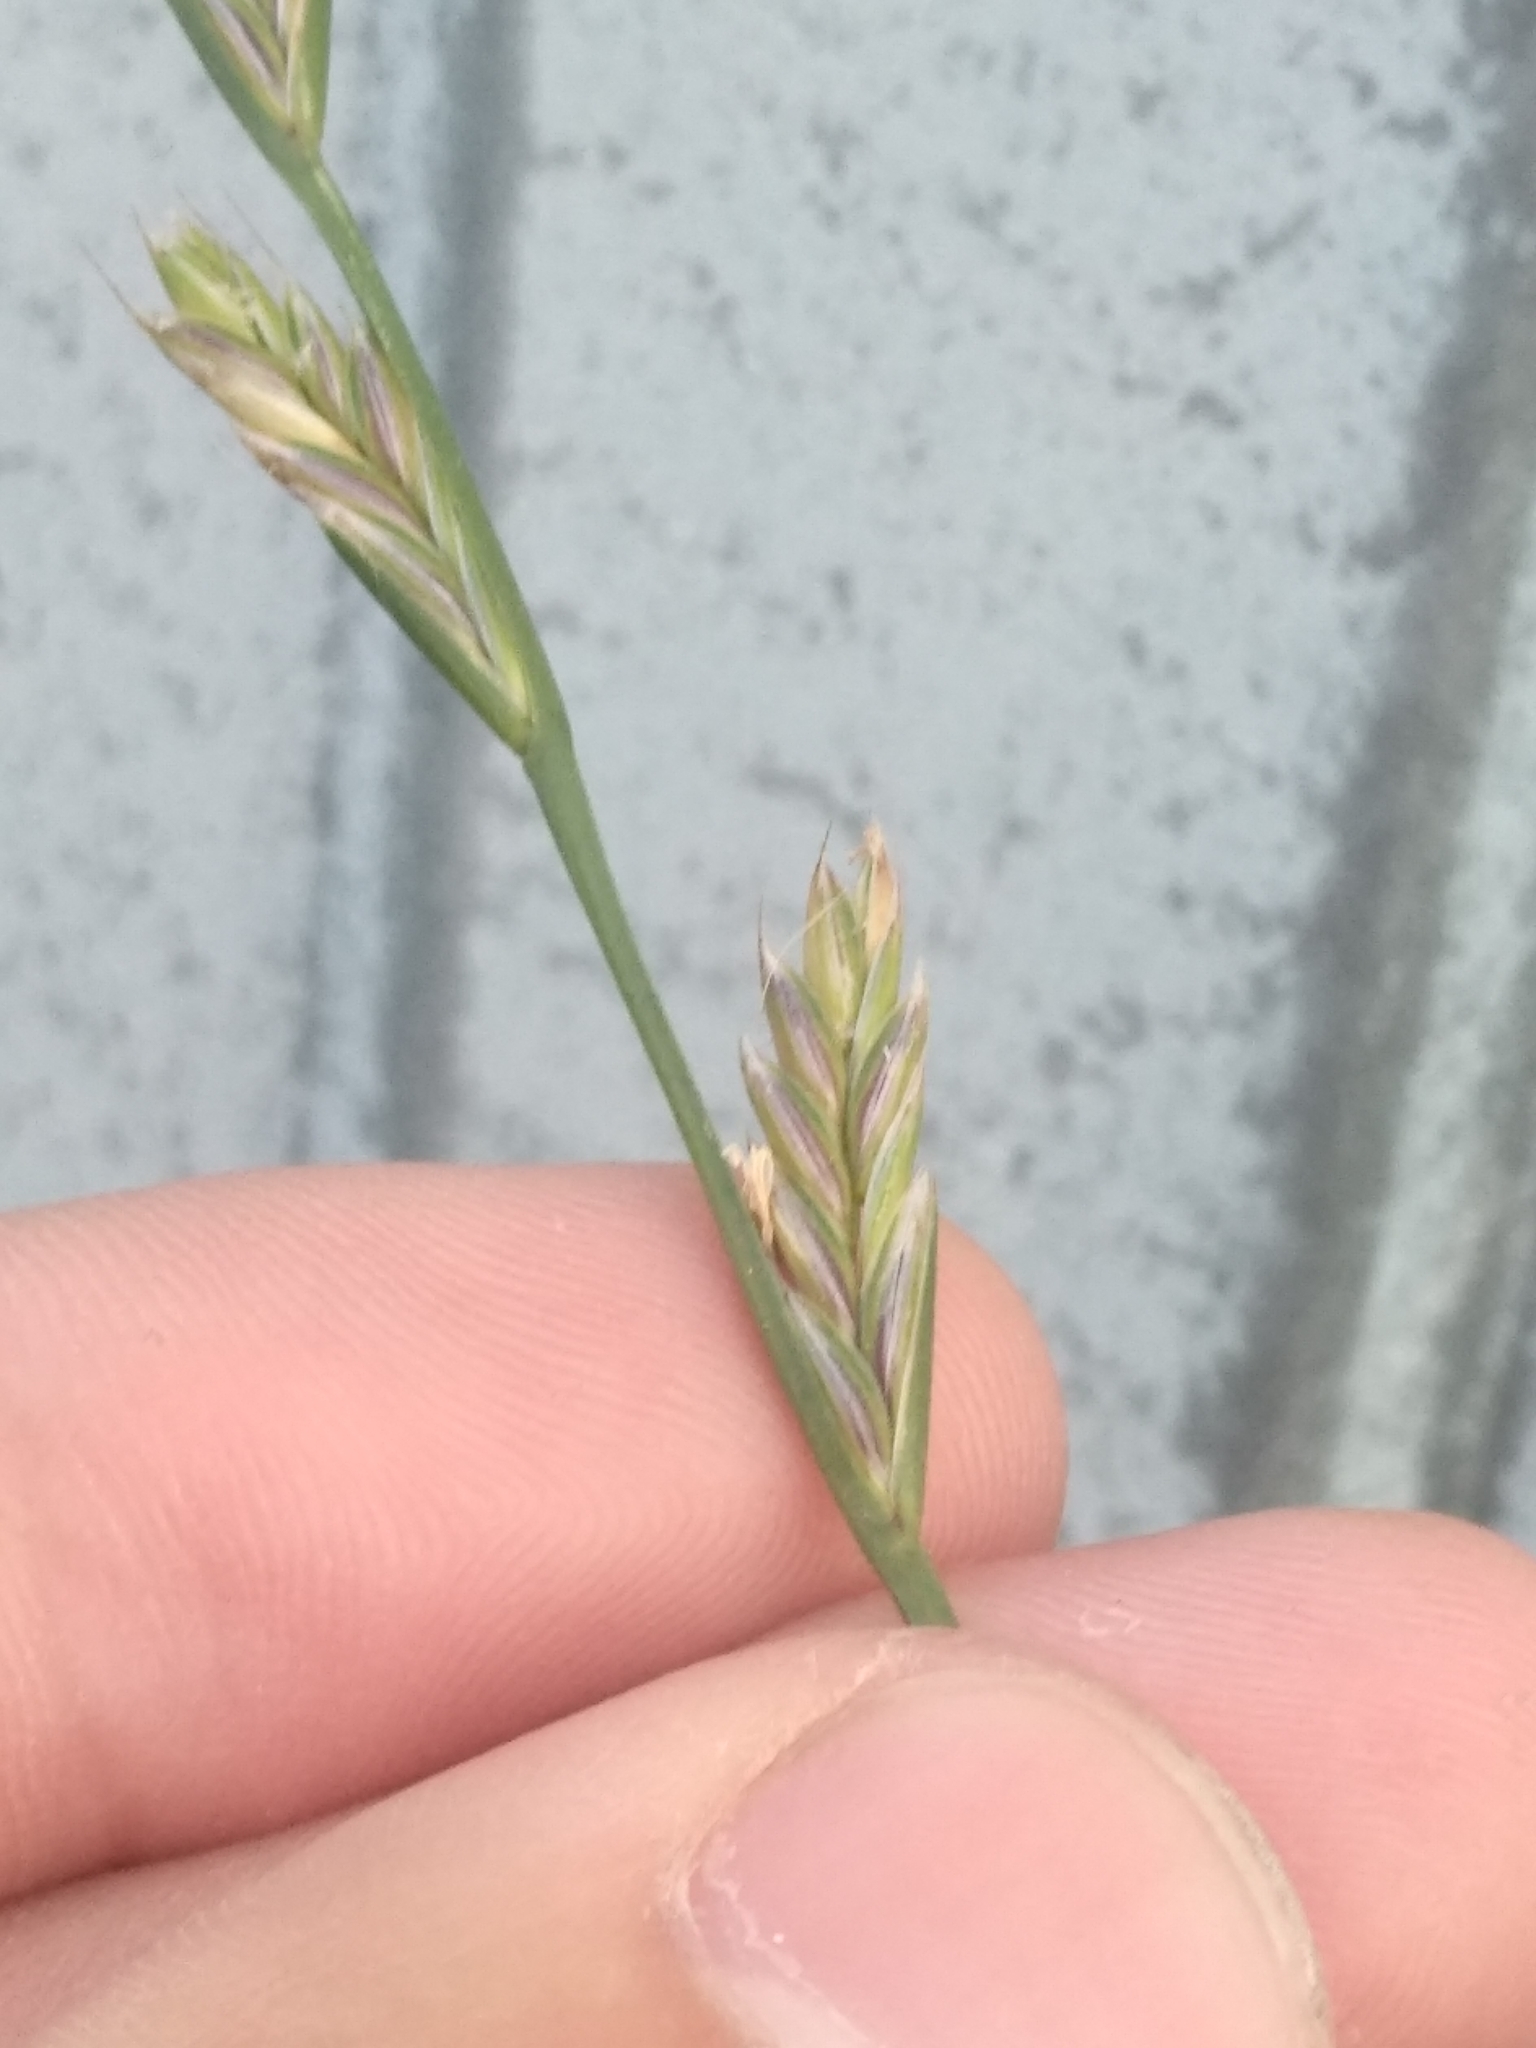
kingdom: Plantae
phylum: Tracheophyta
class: Liliopsida
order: Poales
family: Poaceae
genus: Lolium
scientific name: Lolium multiflorum
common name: Annual ryegrass
